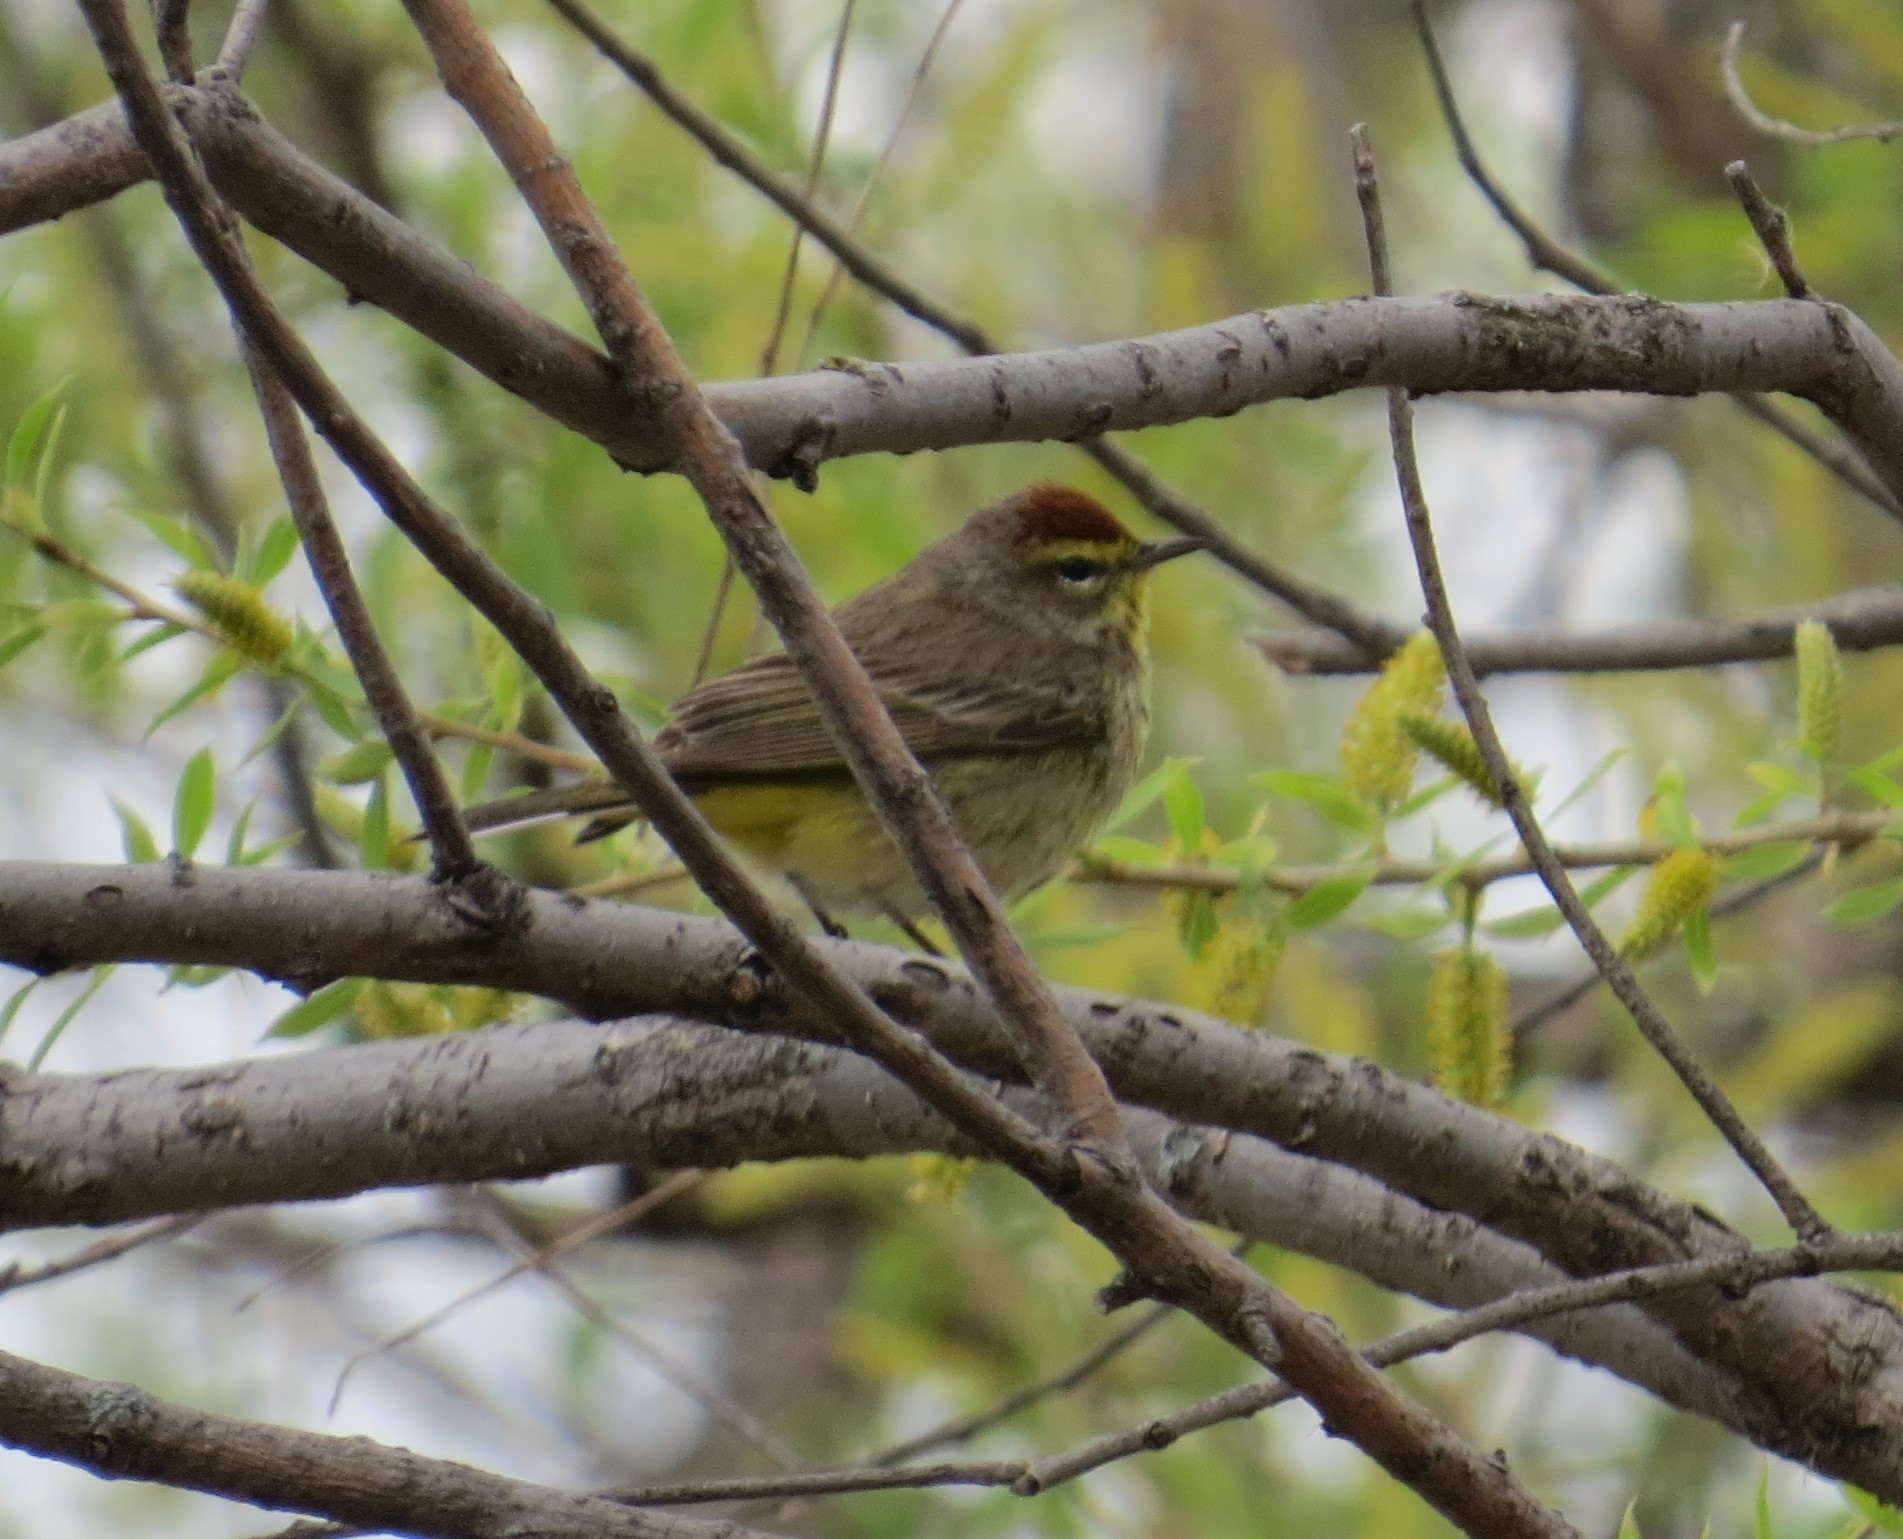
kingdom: Animalia
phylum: Chordata
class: Aves
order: Passeriformes
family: Parulidae
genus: Setophaga
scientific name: Setophaga palmarum
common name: Palm warbler
